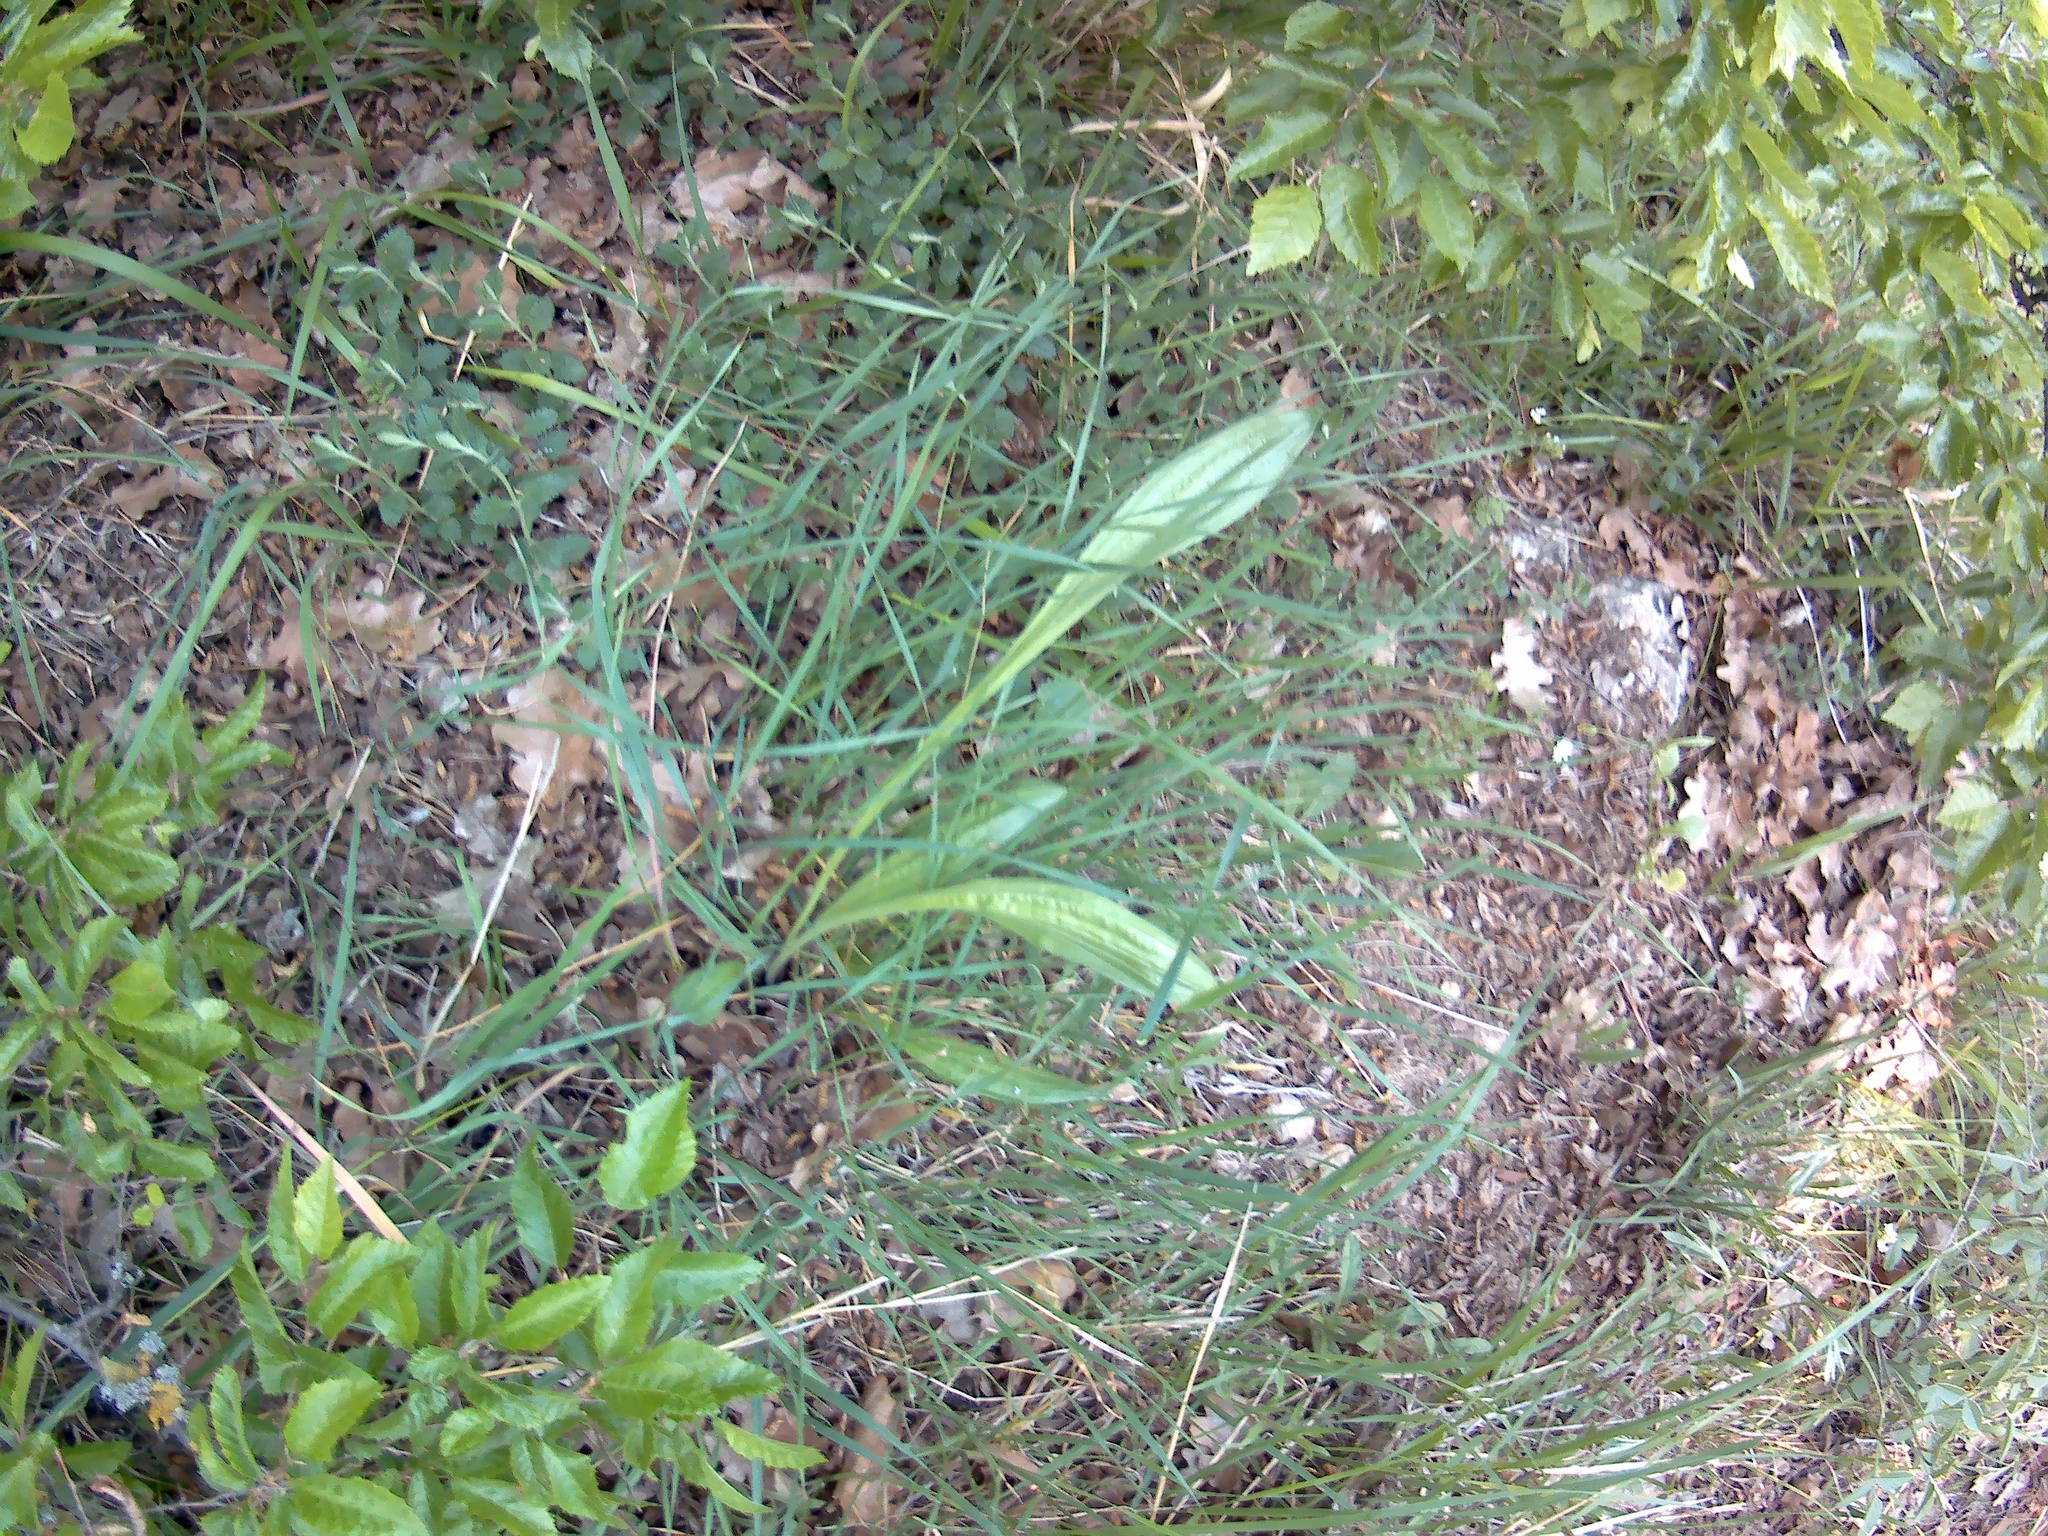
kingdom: Plantae
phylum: Tracheophyta
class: Magnoliopsida
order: Lamiales
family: Plantaginaceae
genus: Plantago
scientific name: Plantago lanceolata
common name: Ribwort plantain
